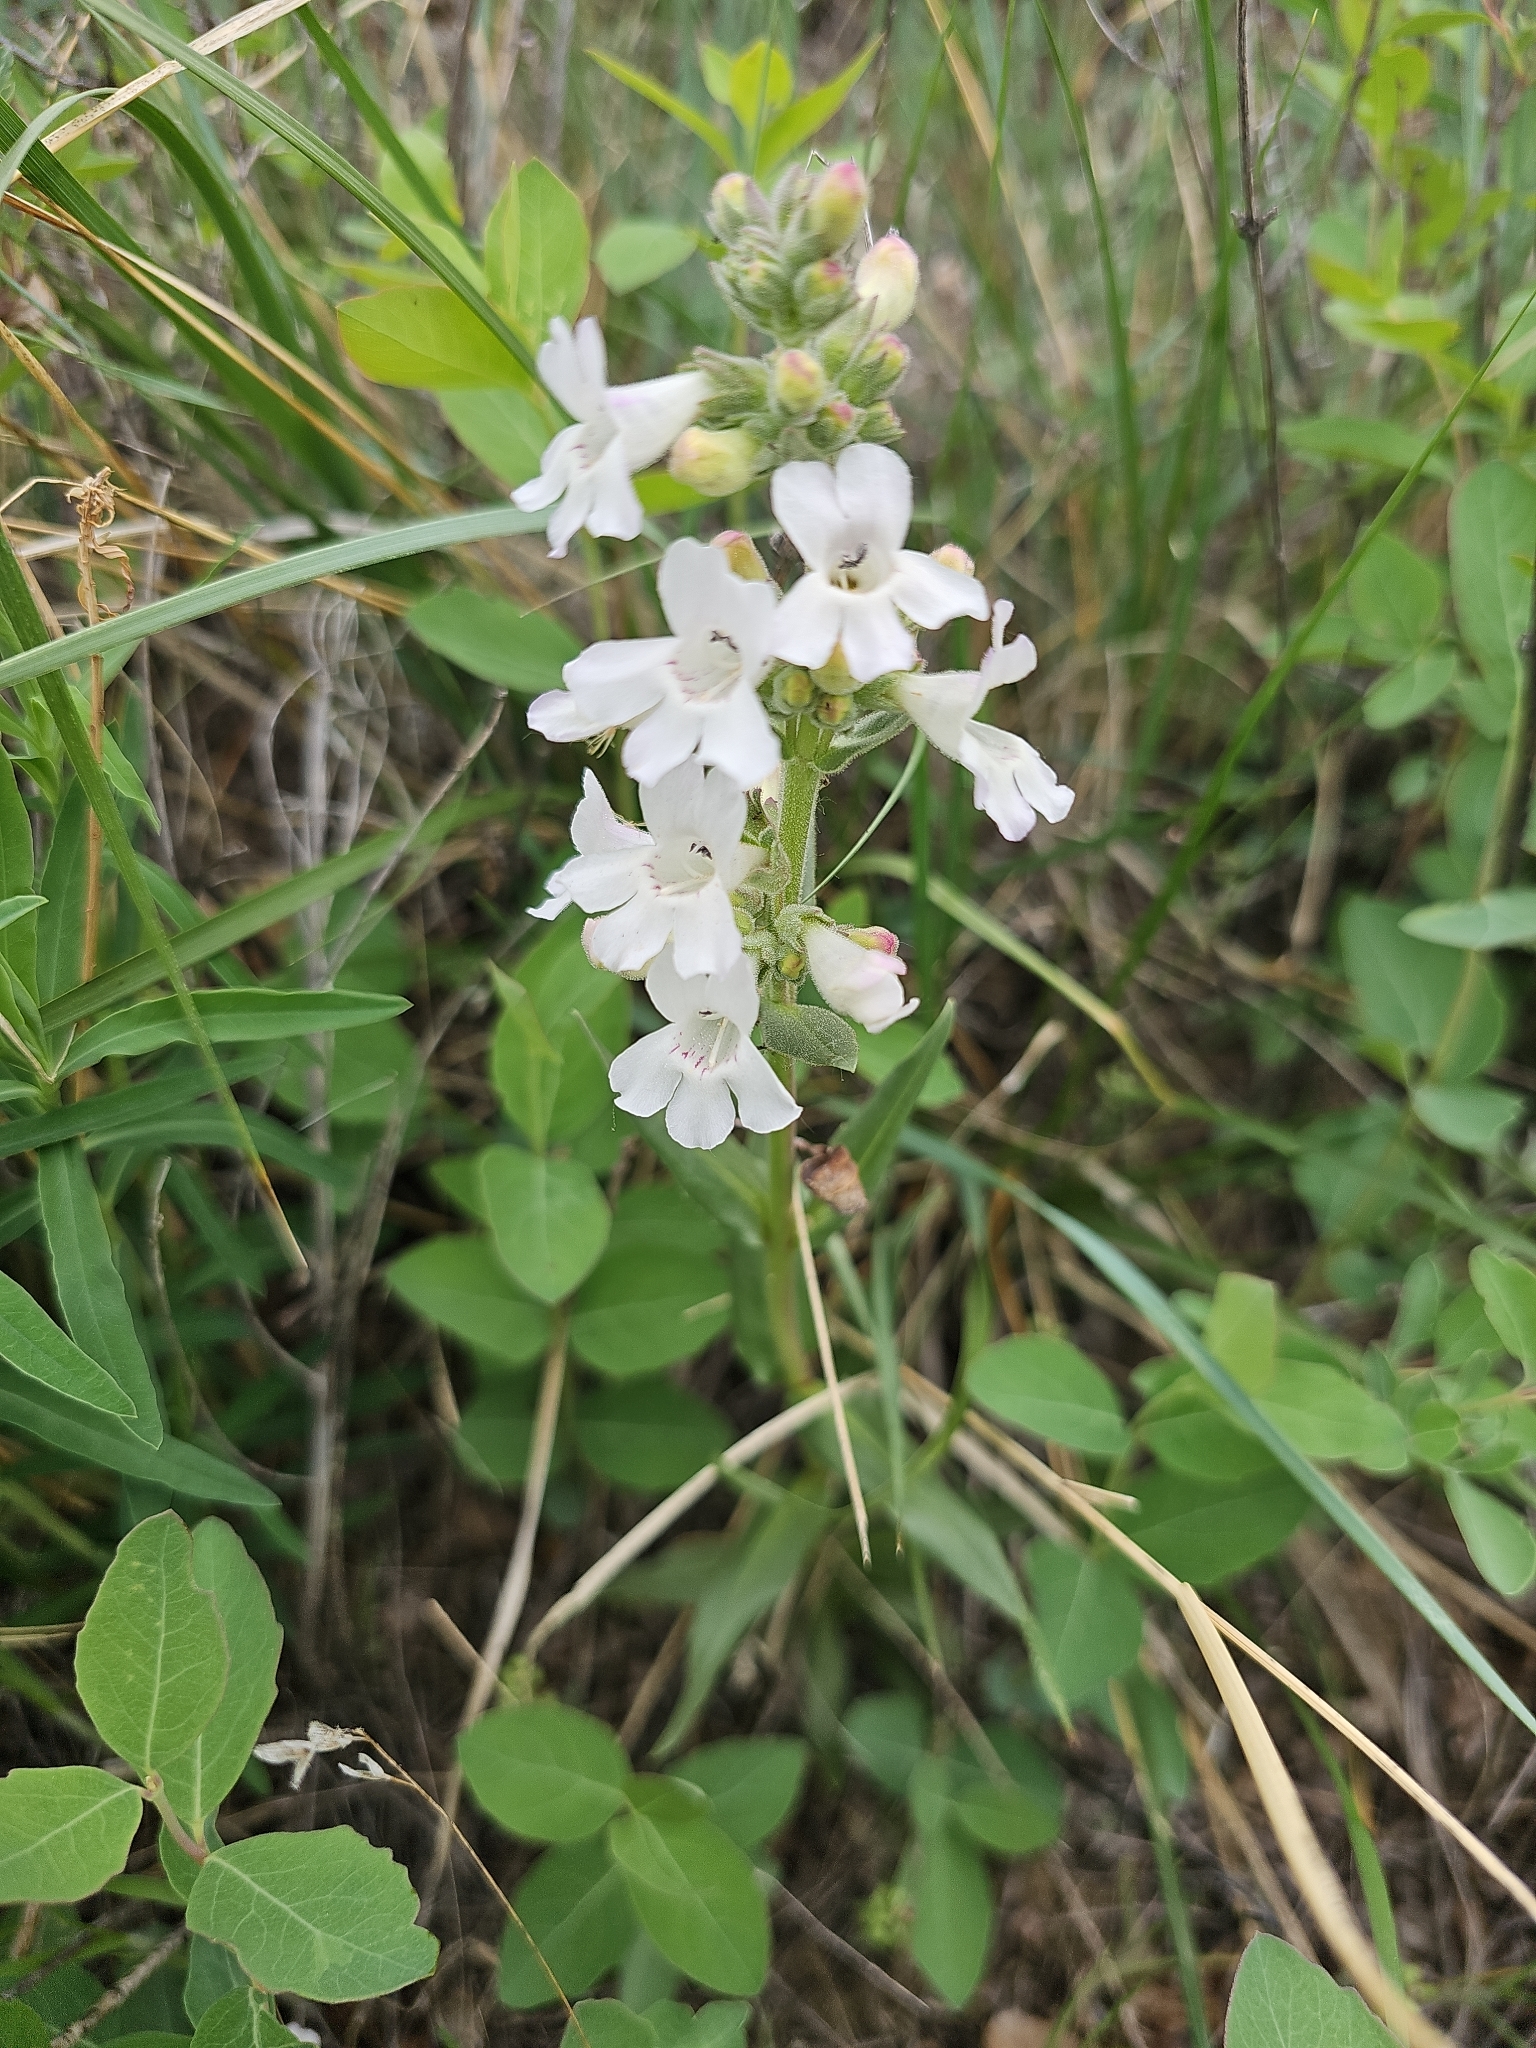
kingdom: Plantae
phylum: Tracheophyta
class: Magnoliopsida
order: Lamiales
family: Plantaginaceae
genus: Penstemon
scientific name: Penstemon albidus
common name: White beardtongue
